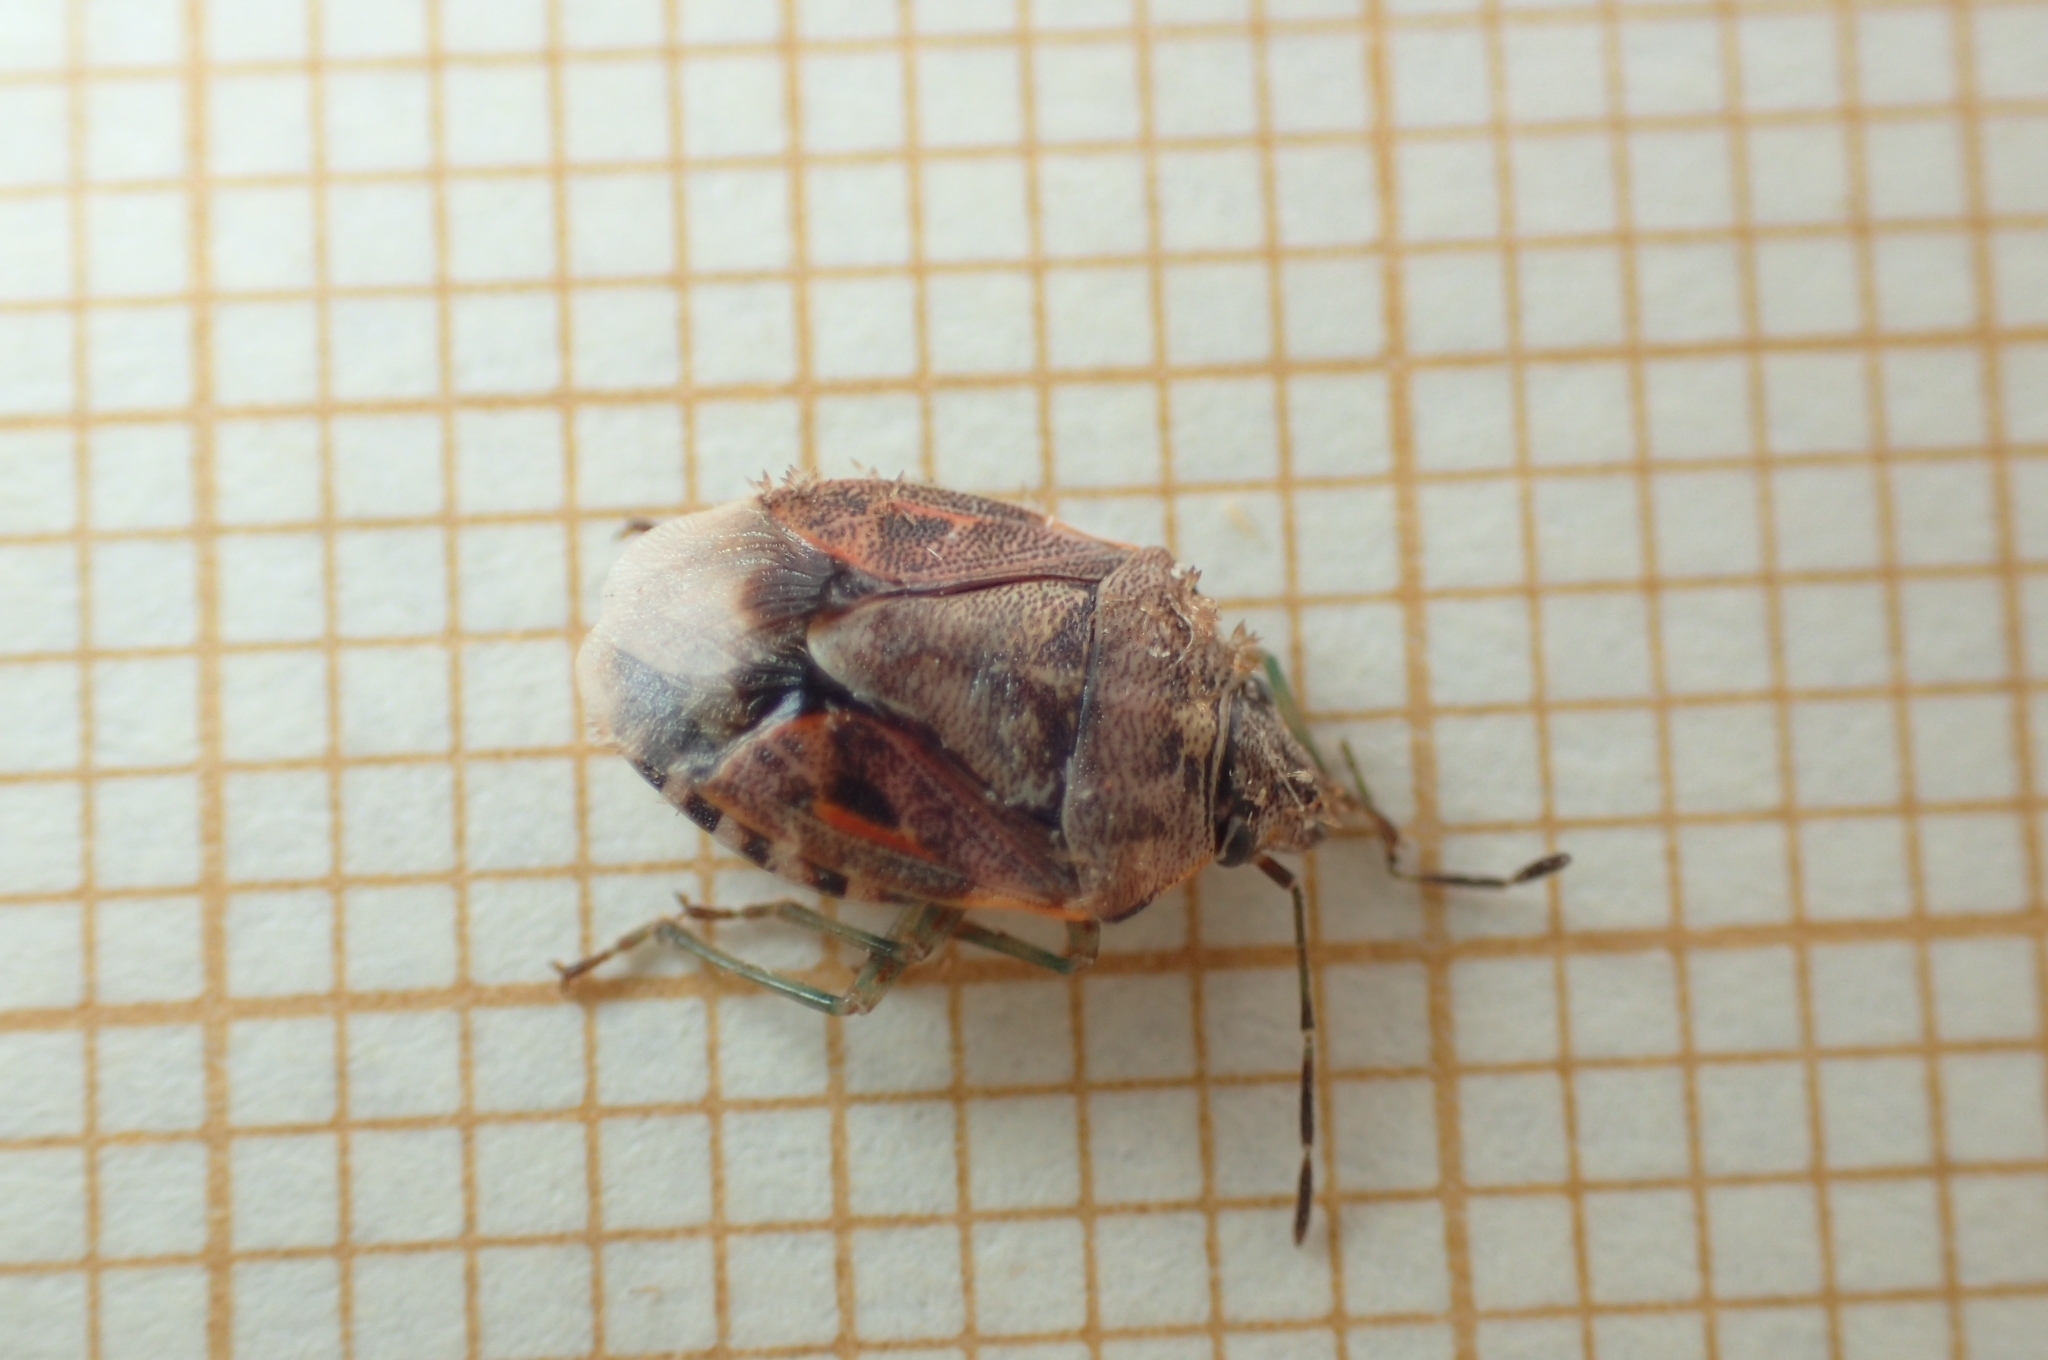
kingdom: Animalia
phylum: Arthropoda
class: Insecta
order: Hemiptera
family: Pentatomidae
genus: Holcogaster
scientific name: Holcogaster fibulata
